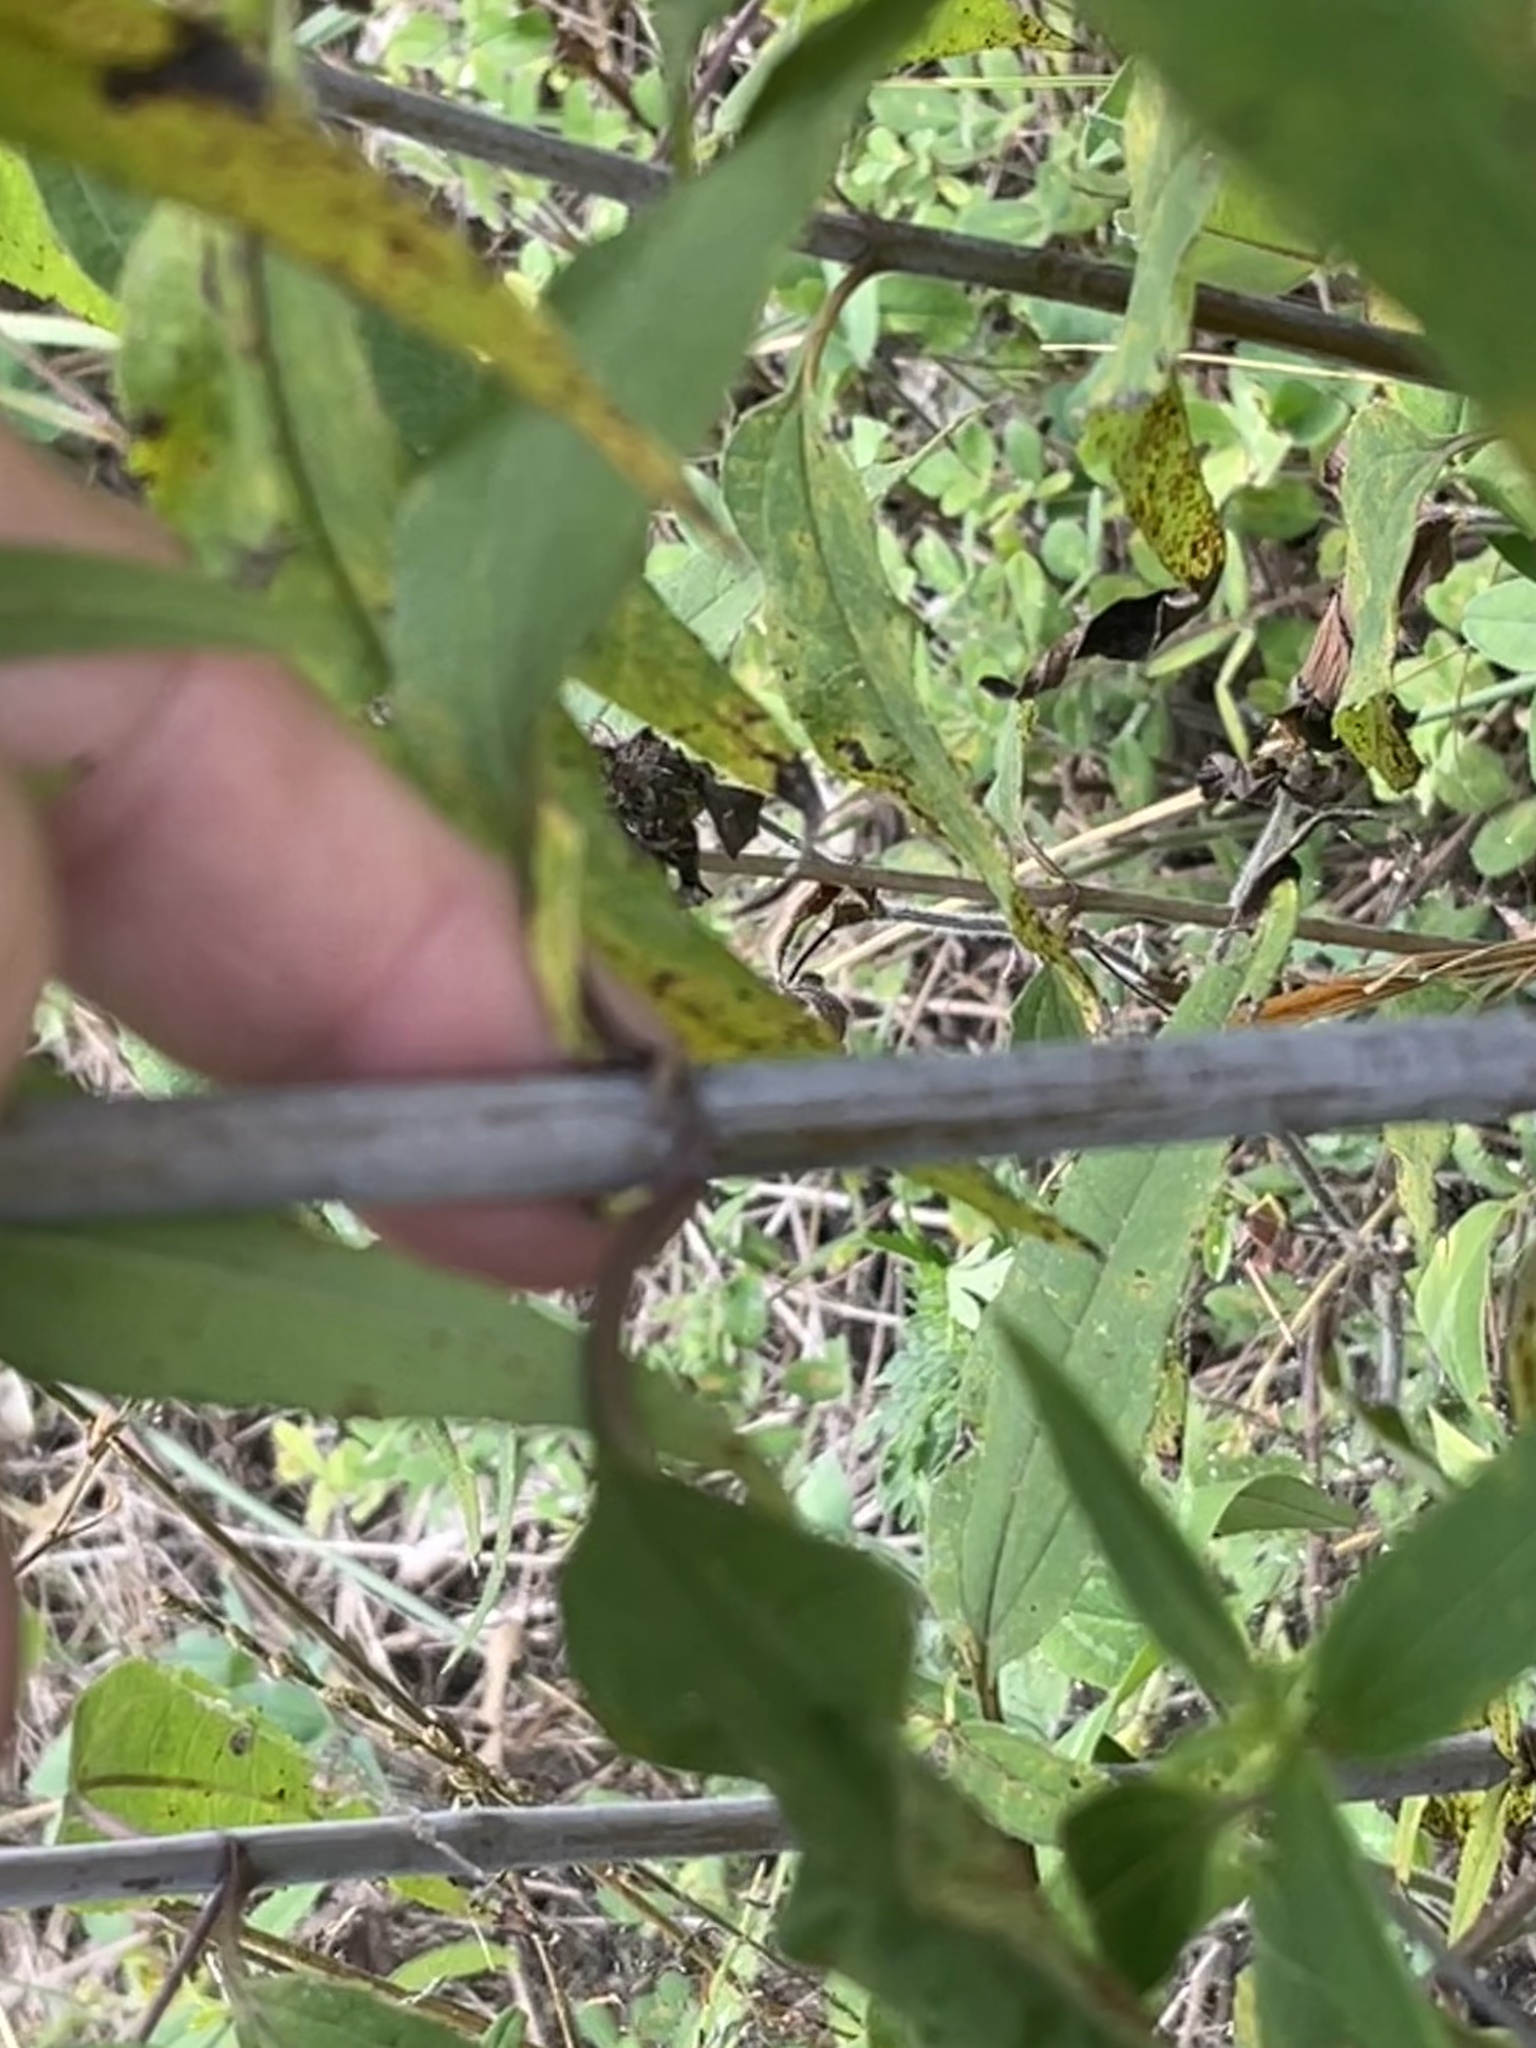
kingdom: Plantae
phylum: Tracheophyta
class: Magnoliopsida
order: Asterales
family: Asteraceae
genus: Helianthus
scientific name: Helianthus microcephalus
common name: Woodland sunflower
